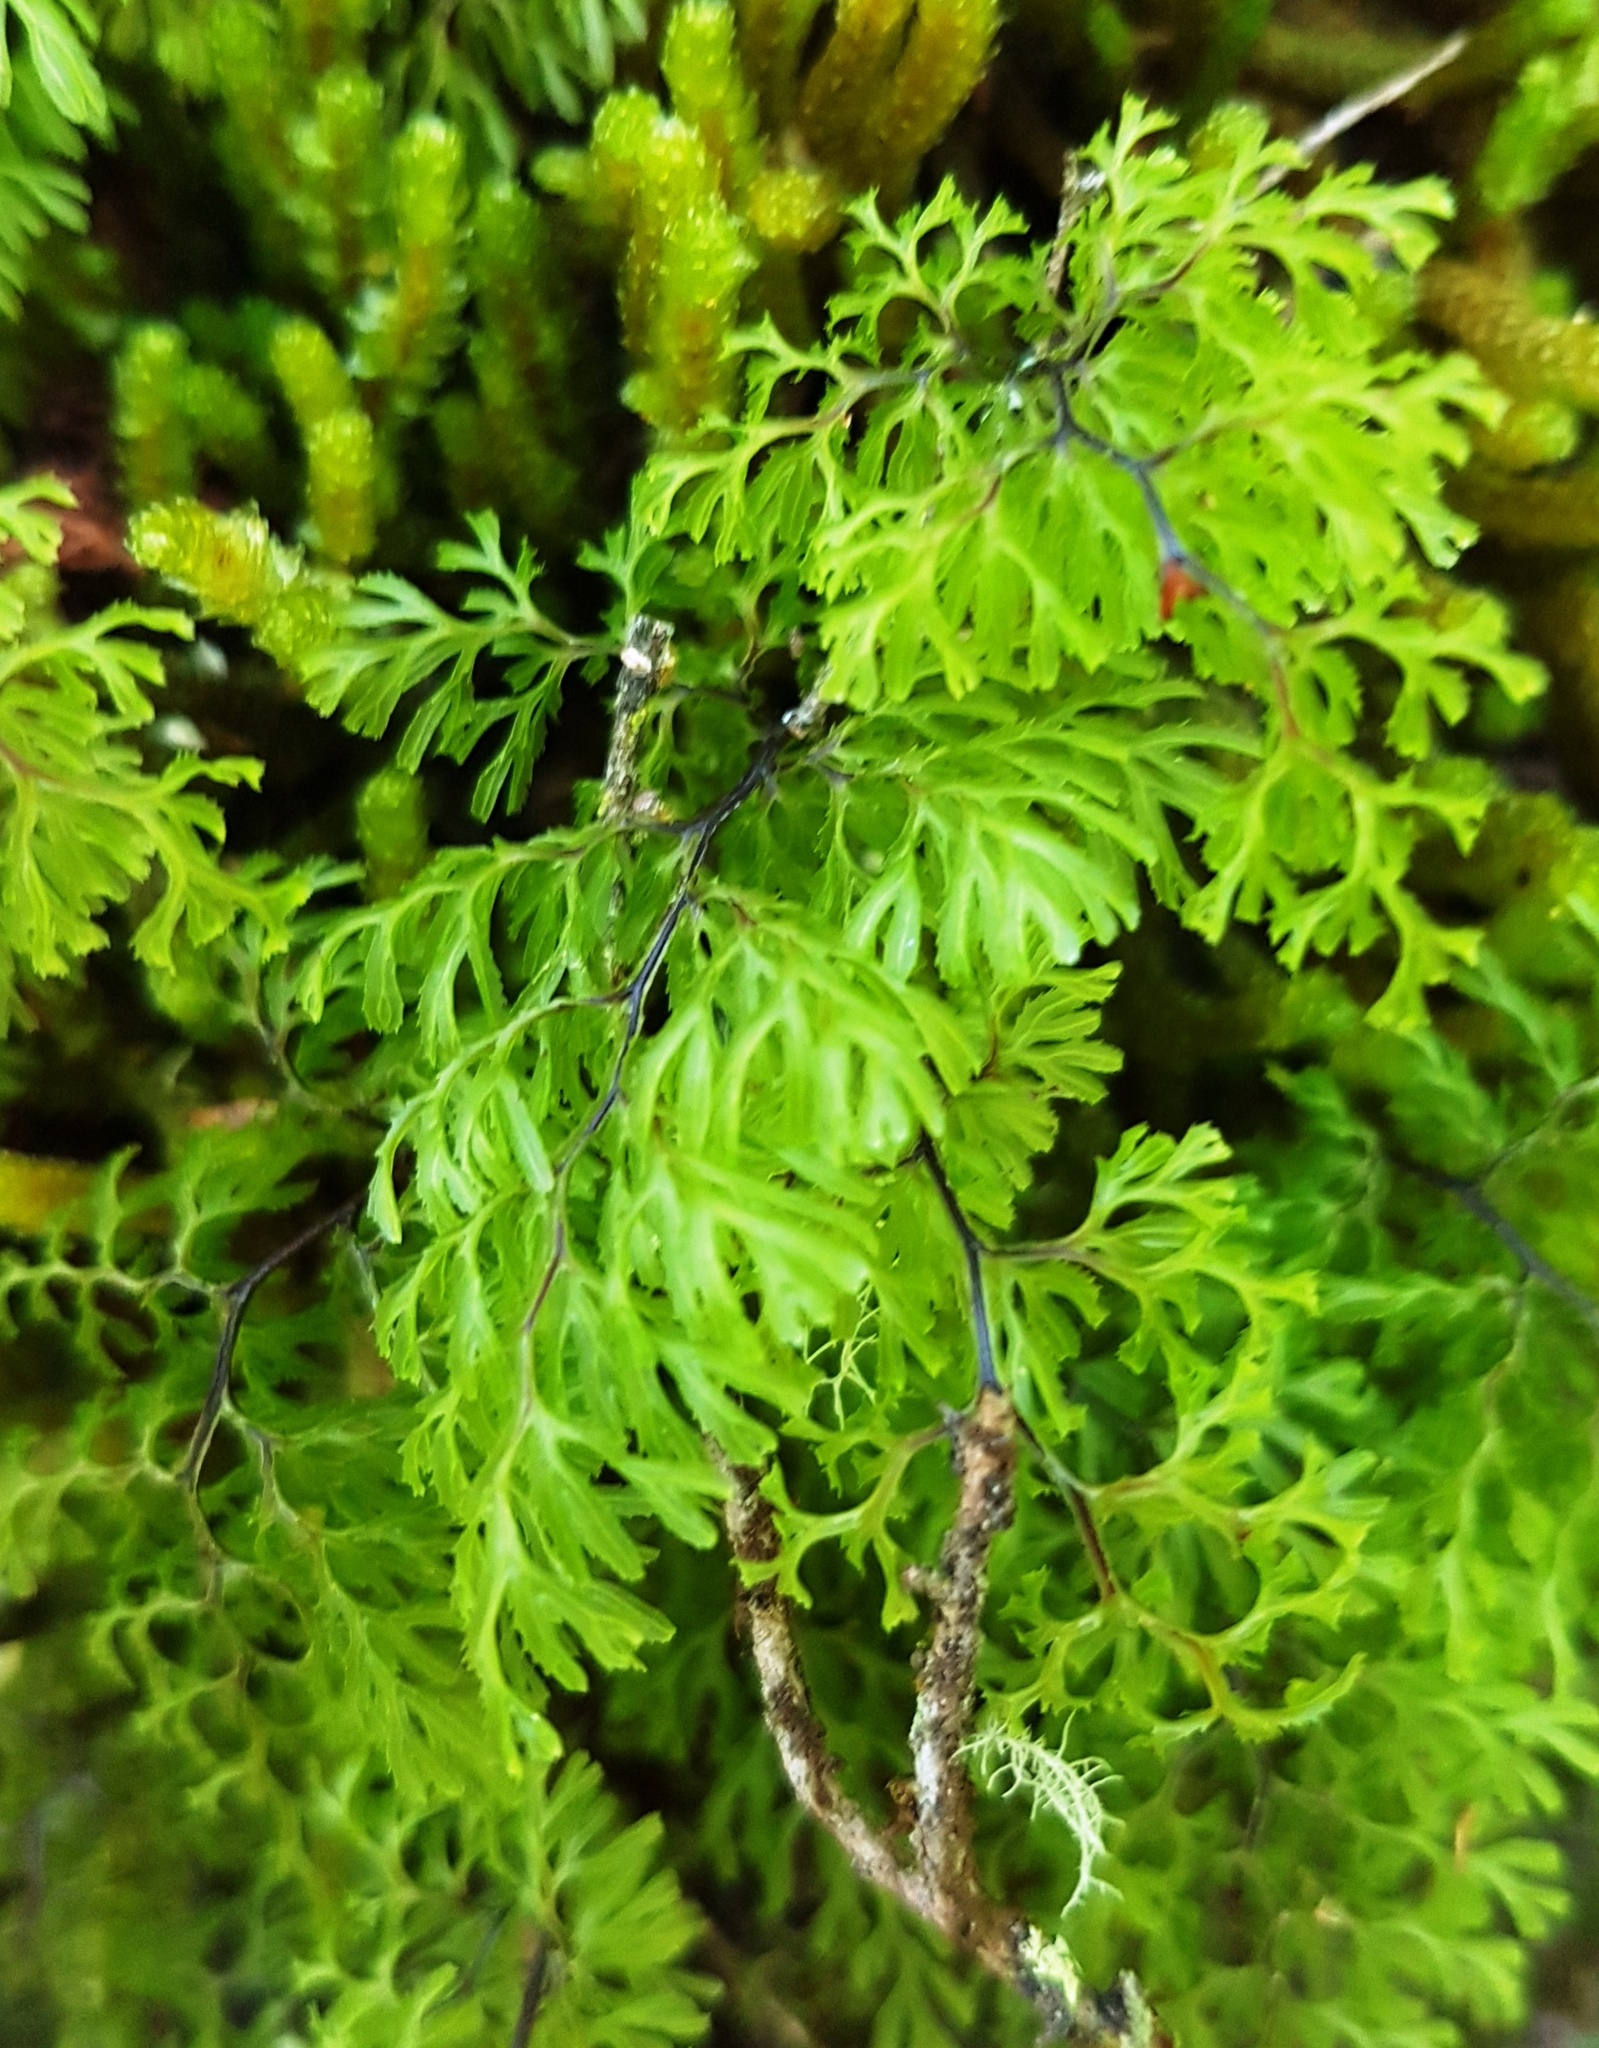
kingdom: Plantae
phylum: Tracheophyta
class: Polypodiopsida
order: Hymenophyllales
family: Hymenophyllaceae
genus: Hymenophyllum
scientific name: Hymenophyllum multifidum
